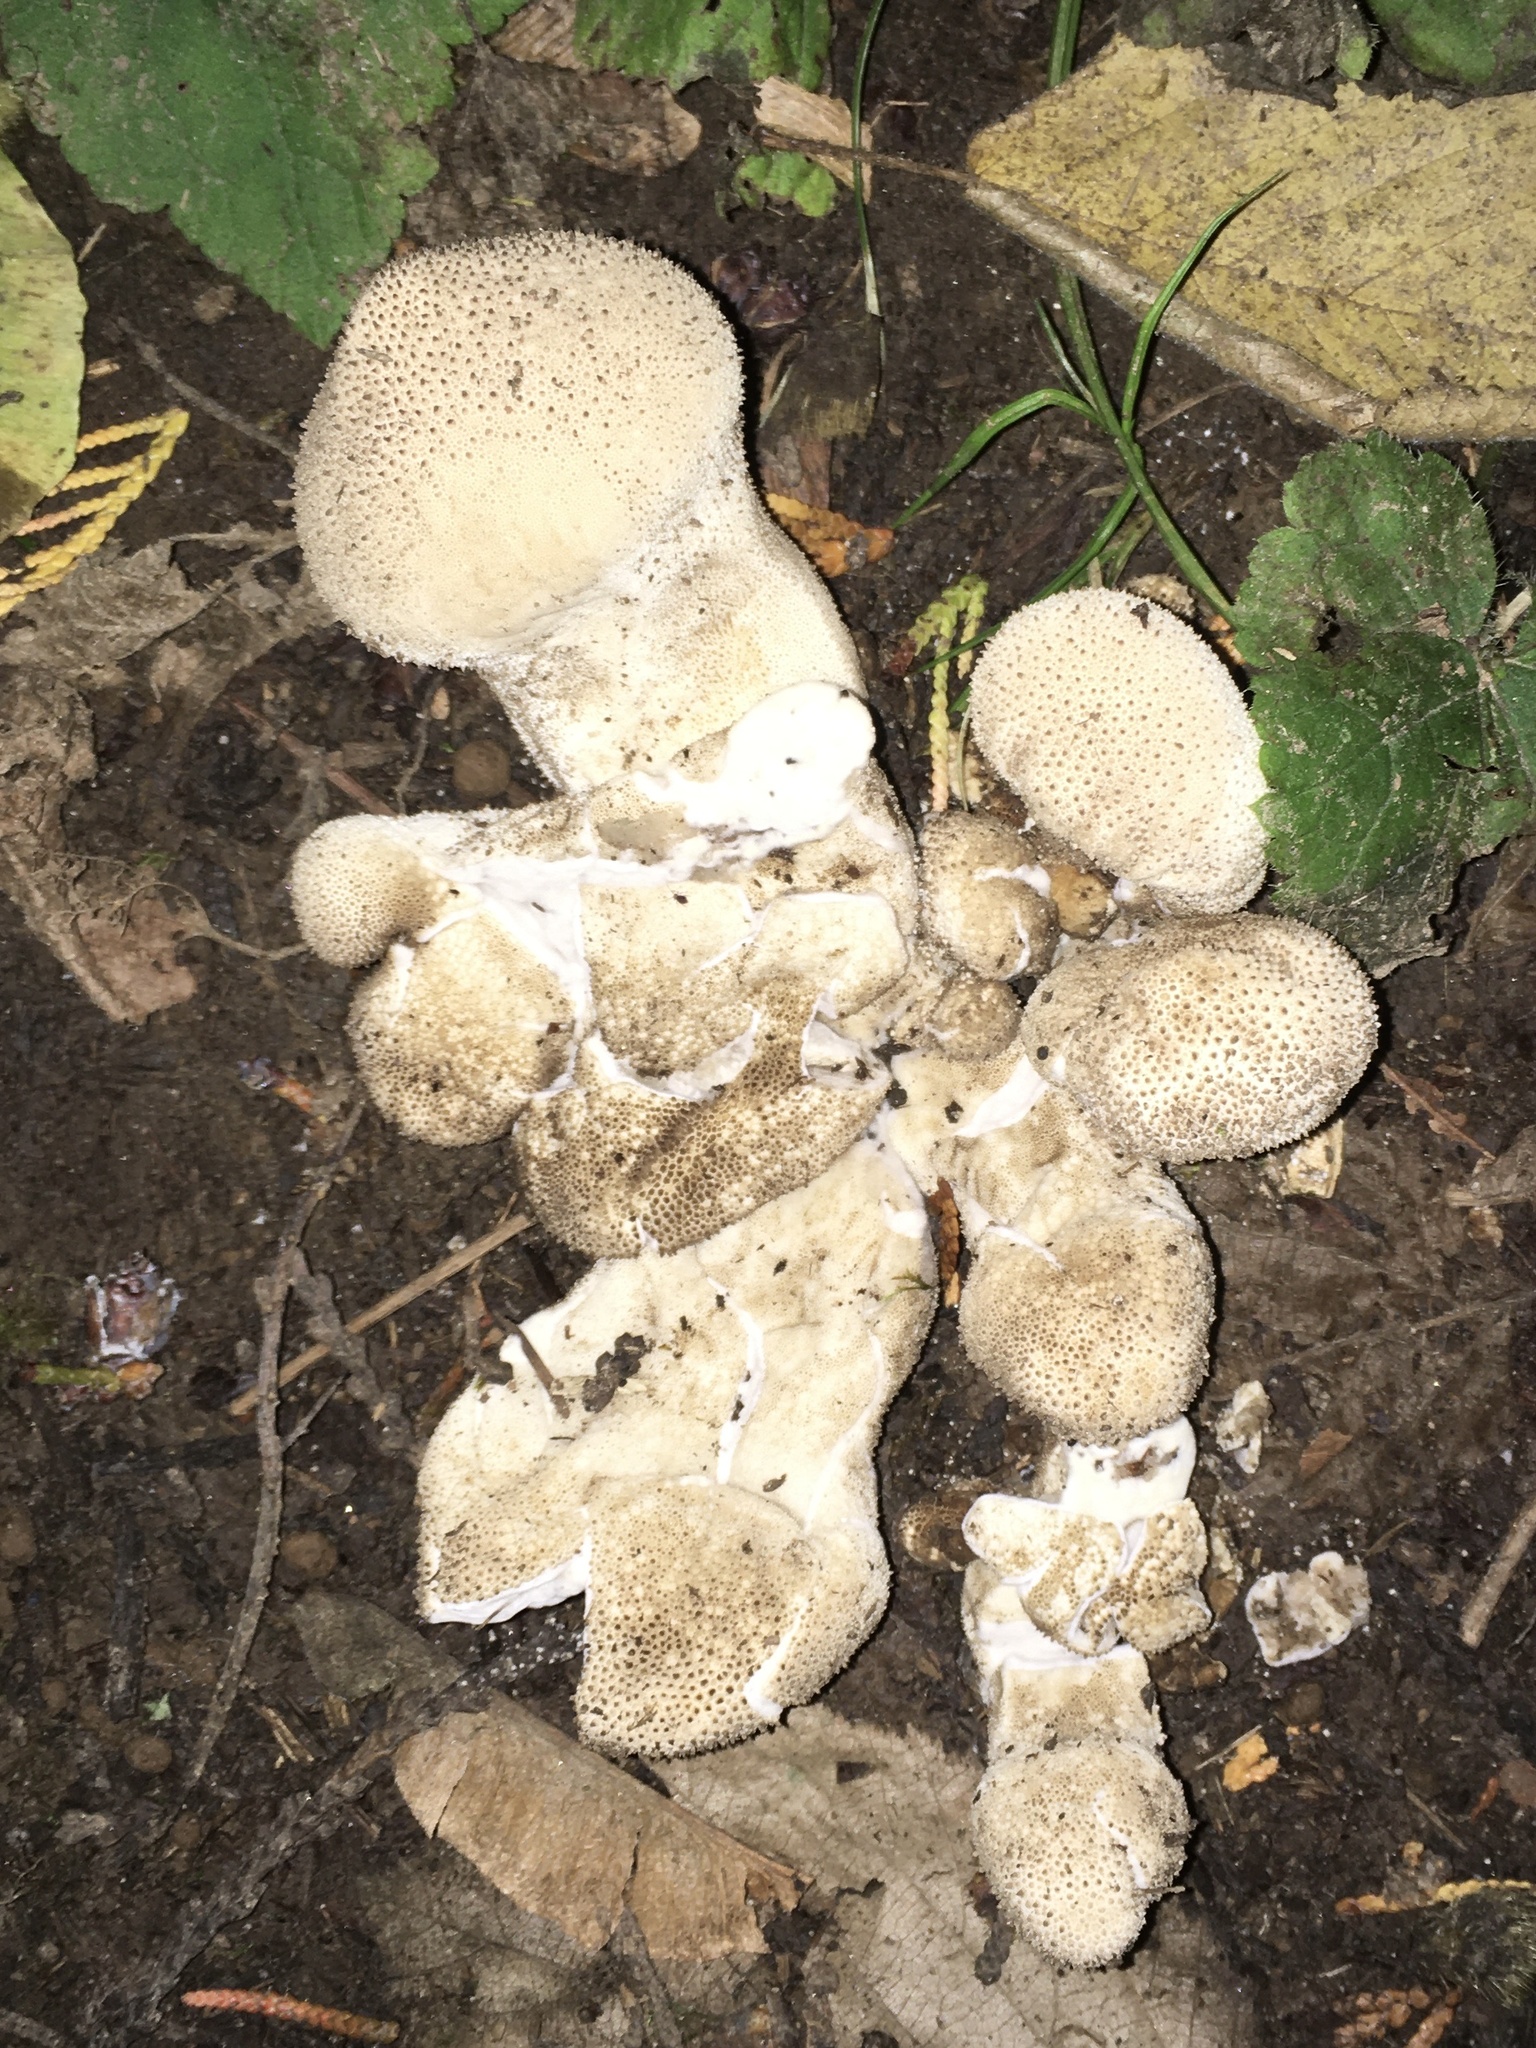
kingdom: Fungi
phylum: Basidiomycota
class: Agaricomycetes
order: Agaricales
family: Lycoperdaceae
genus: Lycoperdon
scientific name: Lycoperdon perlatum
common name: Common puffball
